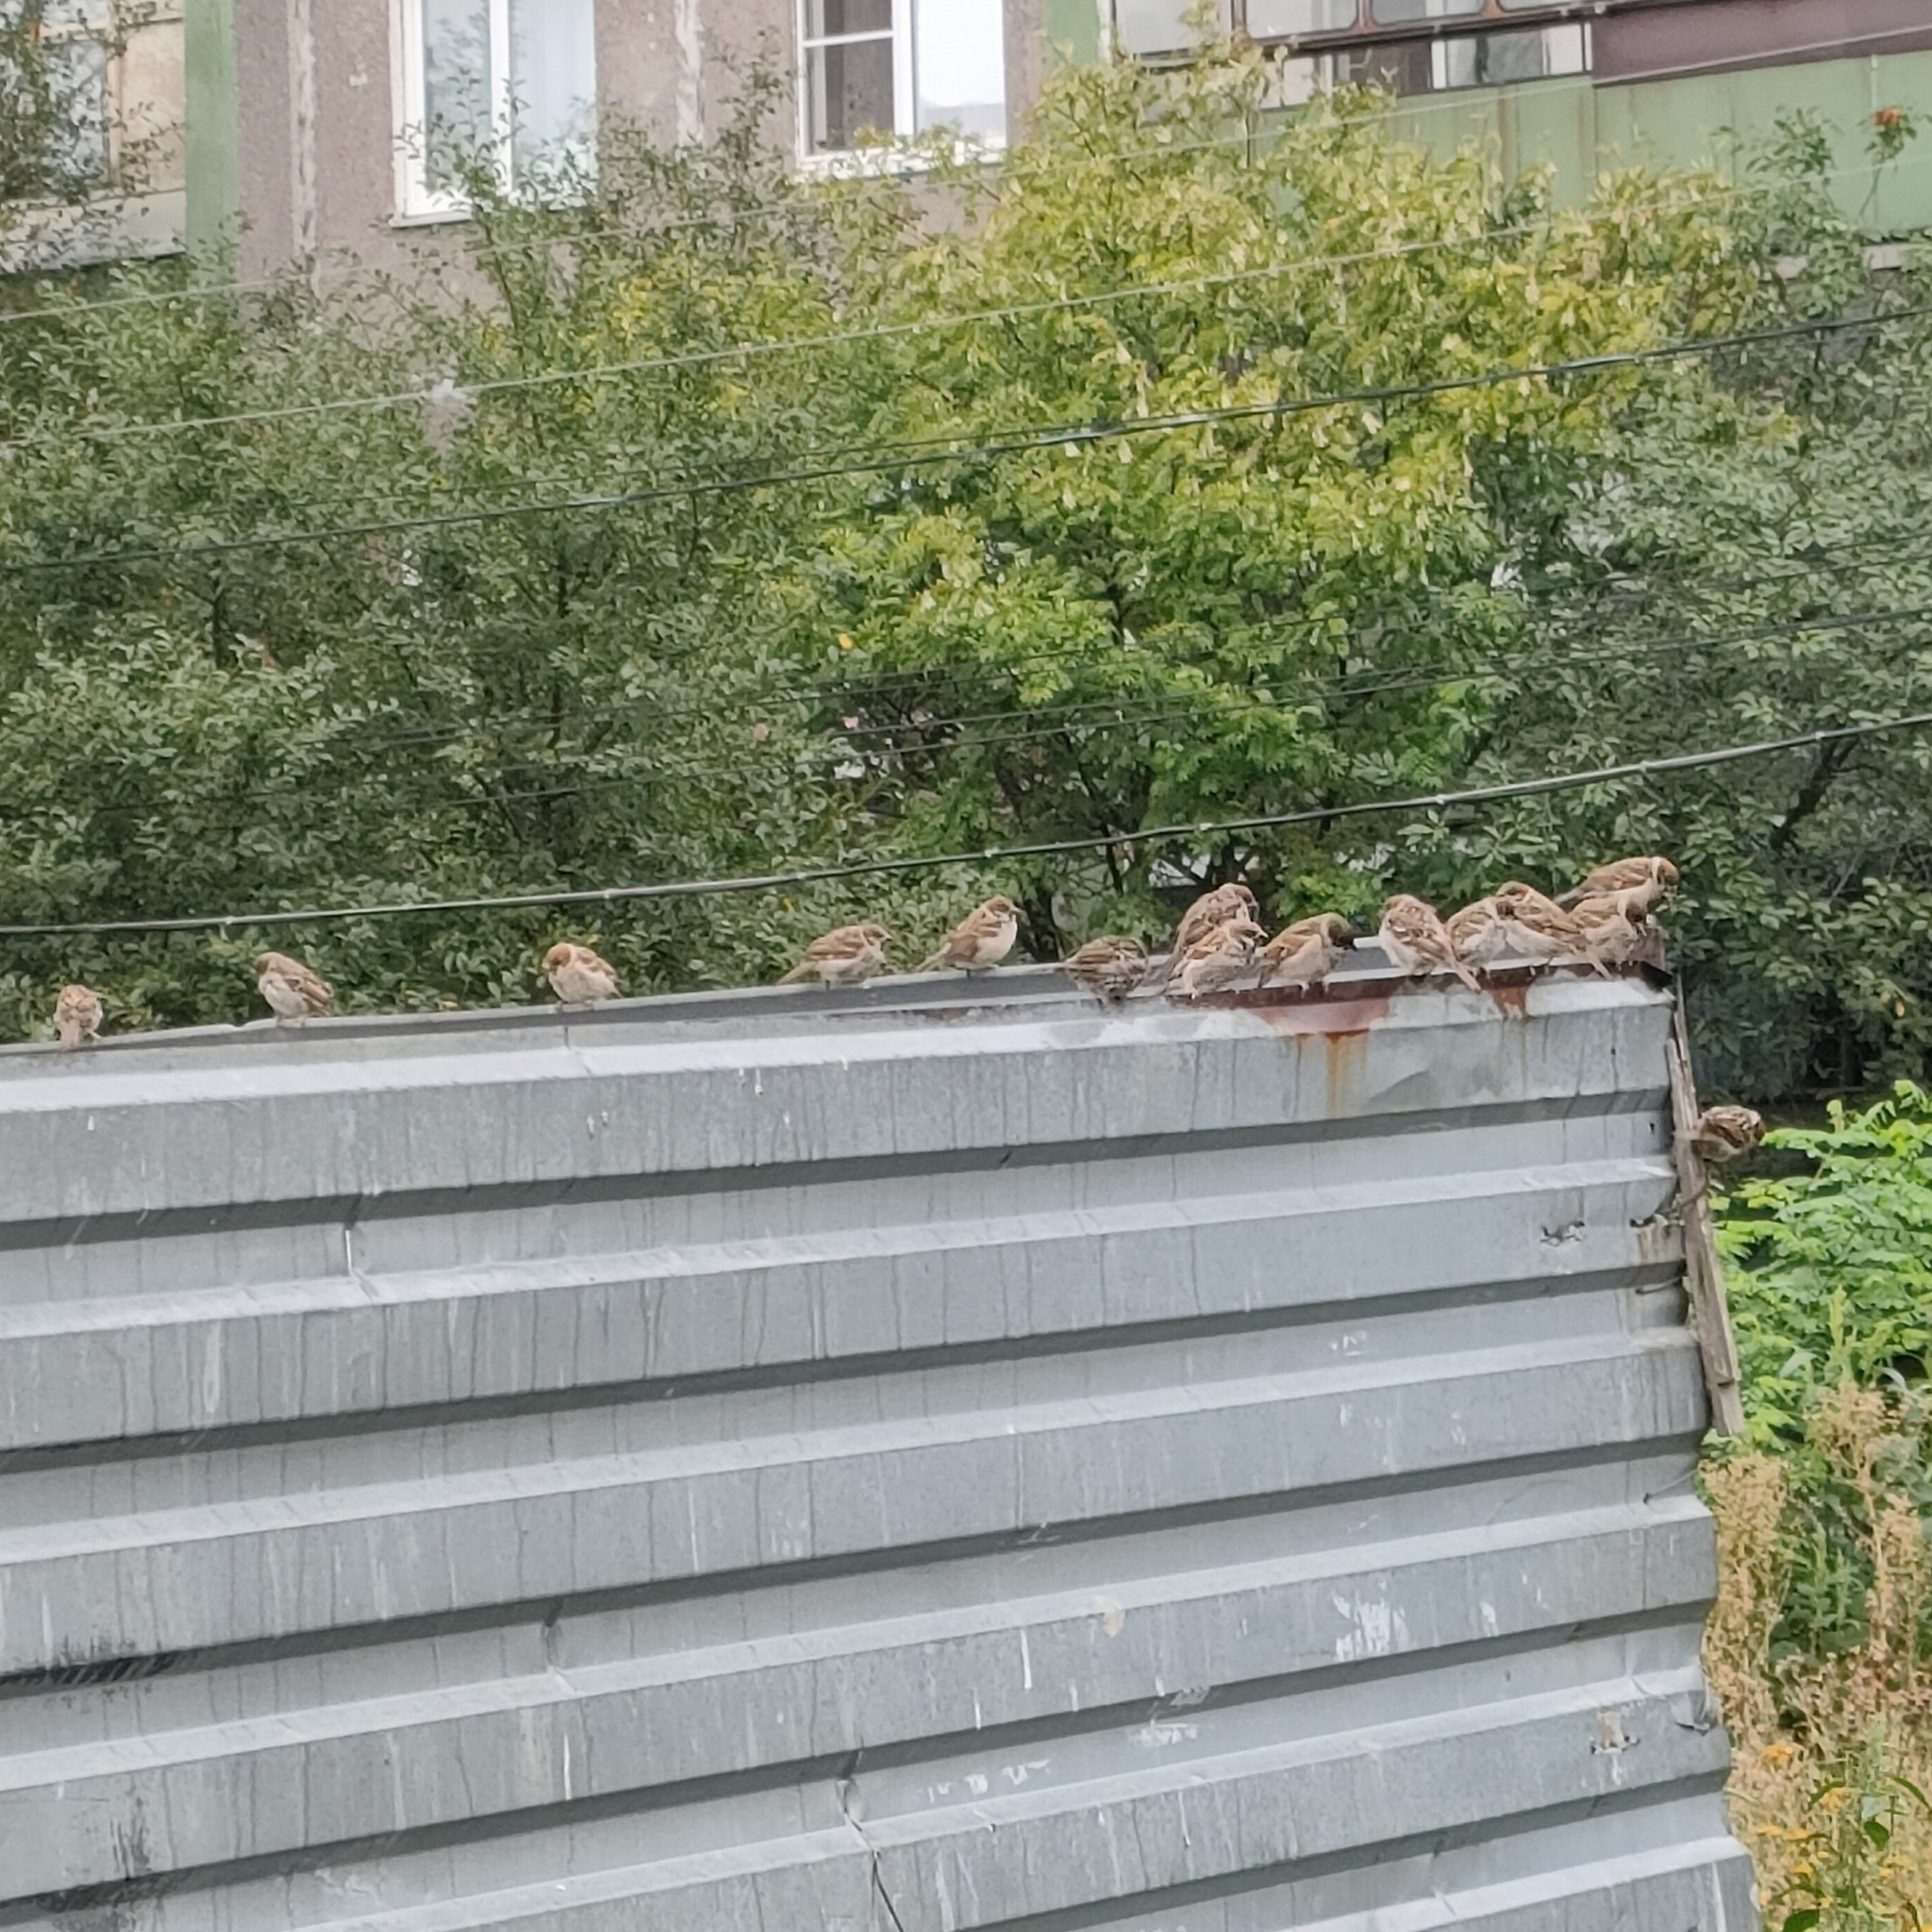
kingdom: Animalia
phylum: Chordata
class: Aves
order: Passeriformes
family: Passeridae
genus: Passer
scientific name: Passer montanus
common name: Eurasian tree sparrow
